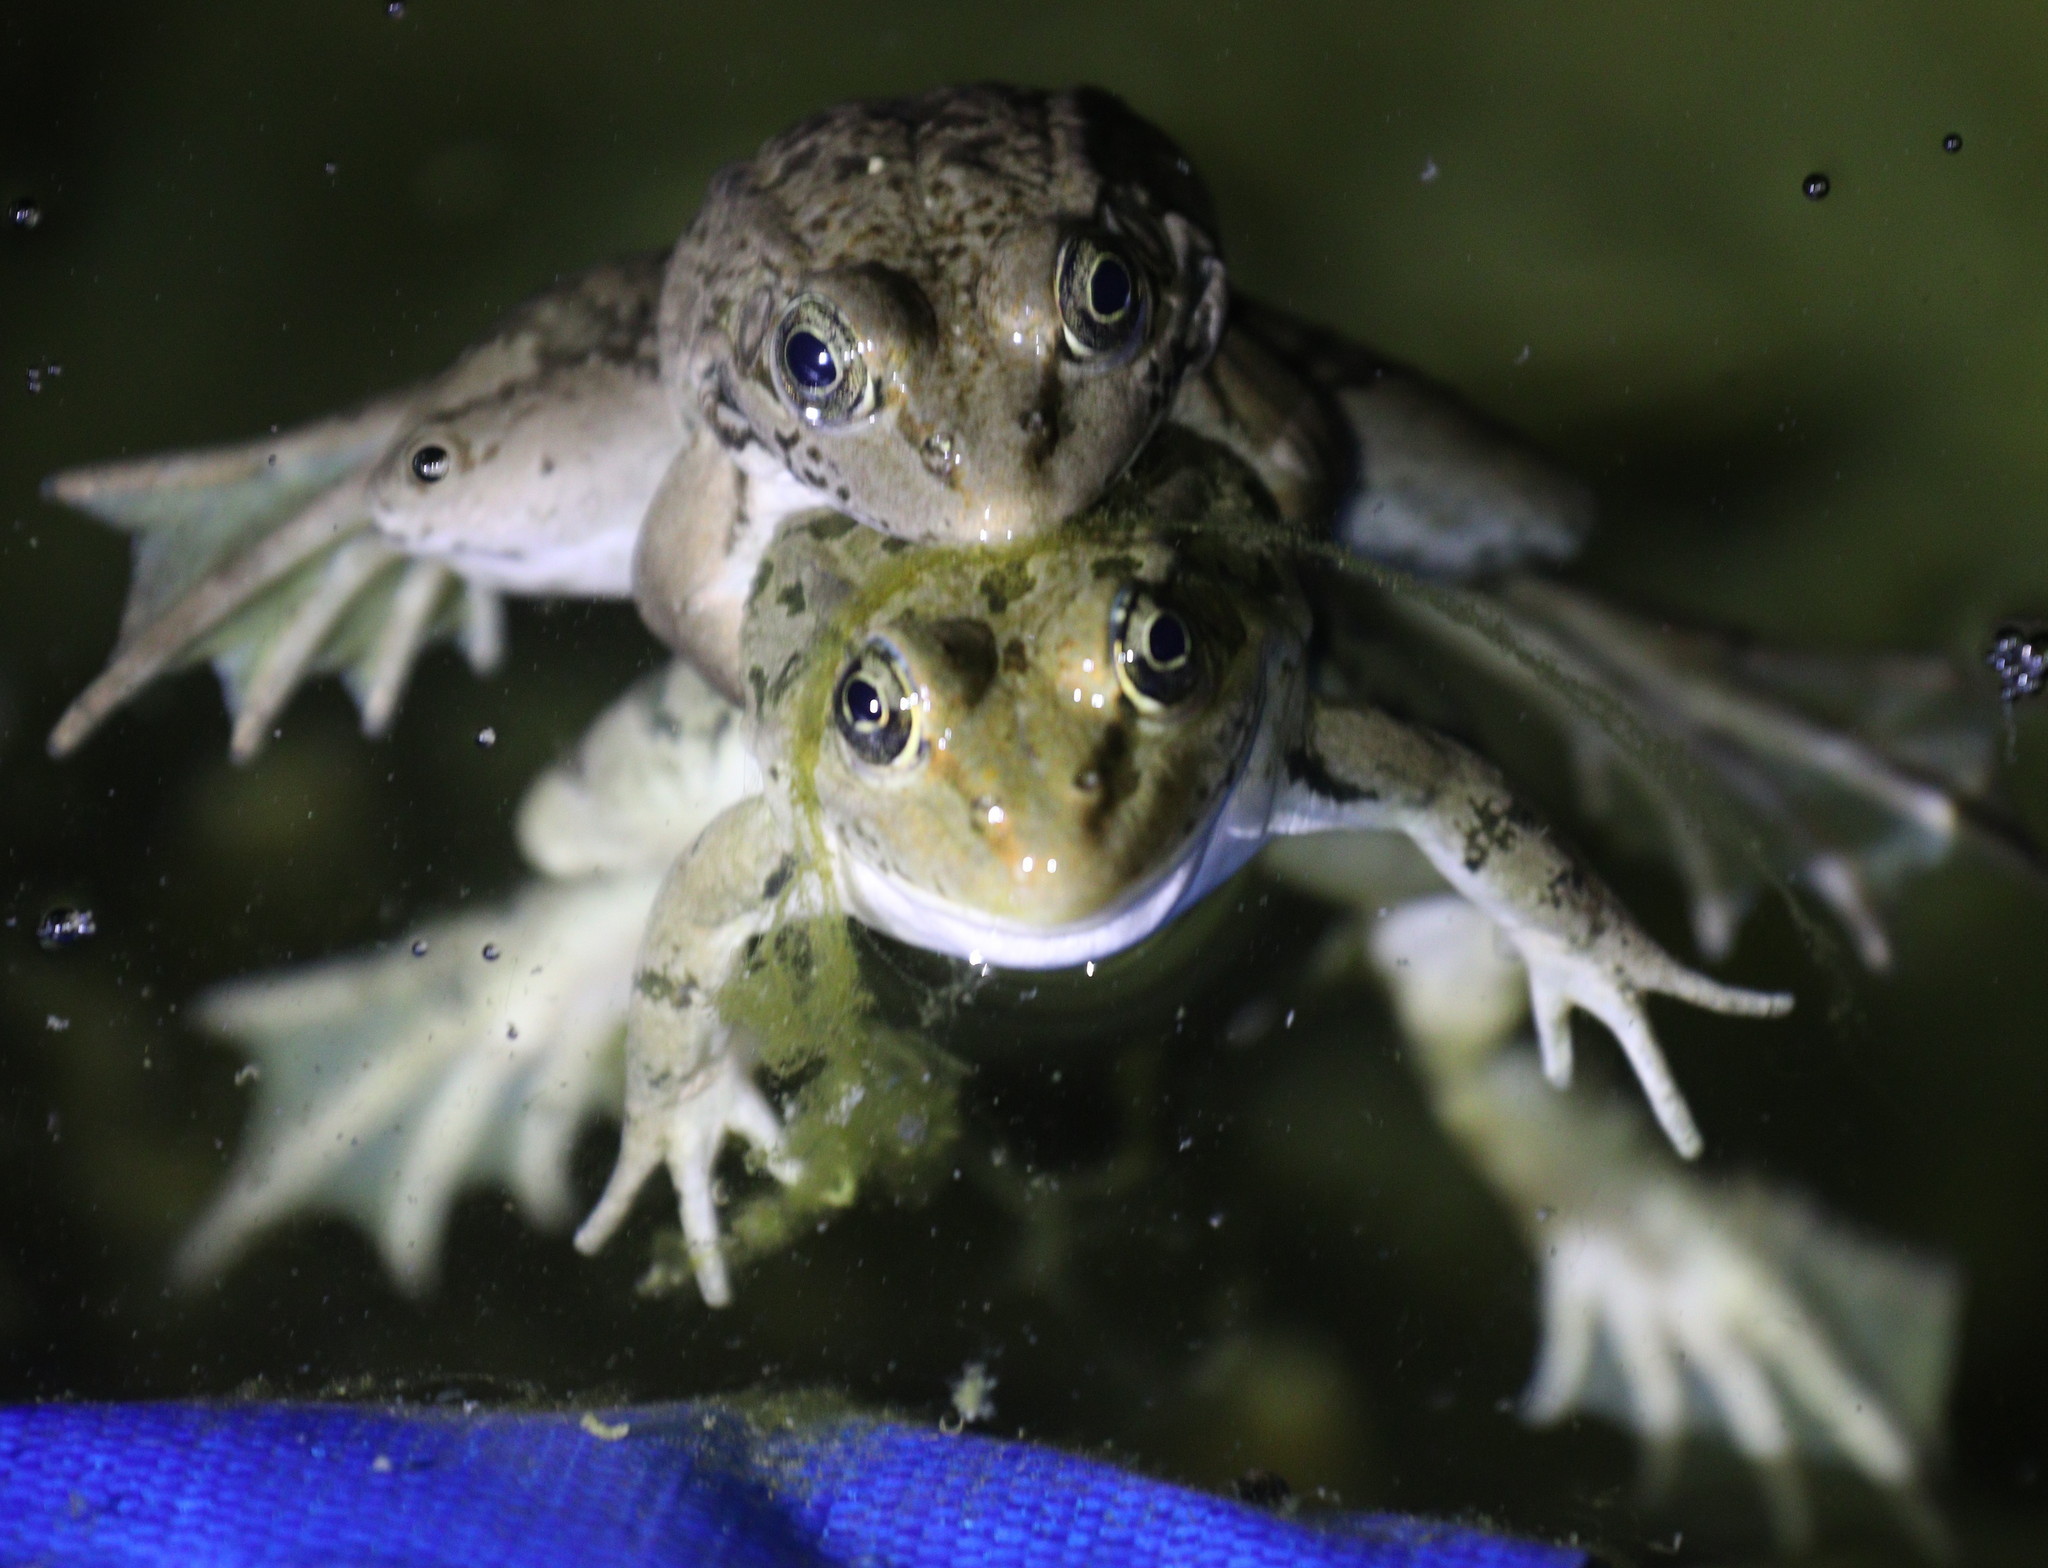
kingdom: Animalia
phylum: Chordata
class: Amphibia
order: Anura
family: Ranidae
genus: Pelophylax
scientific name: Pelophylax ridibundus
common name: Marsh frog
